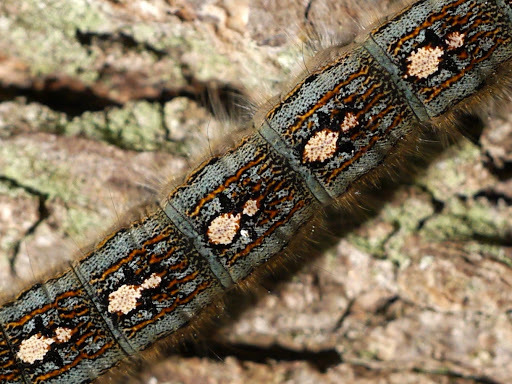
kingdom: Animalia
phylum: Arthropoda
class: Insecta
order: Lepidoptera
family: Lasiocampidae
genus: Malacosoma
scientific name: Malacosoma disstria
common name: Forest tent caterpillar
